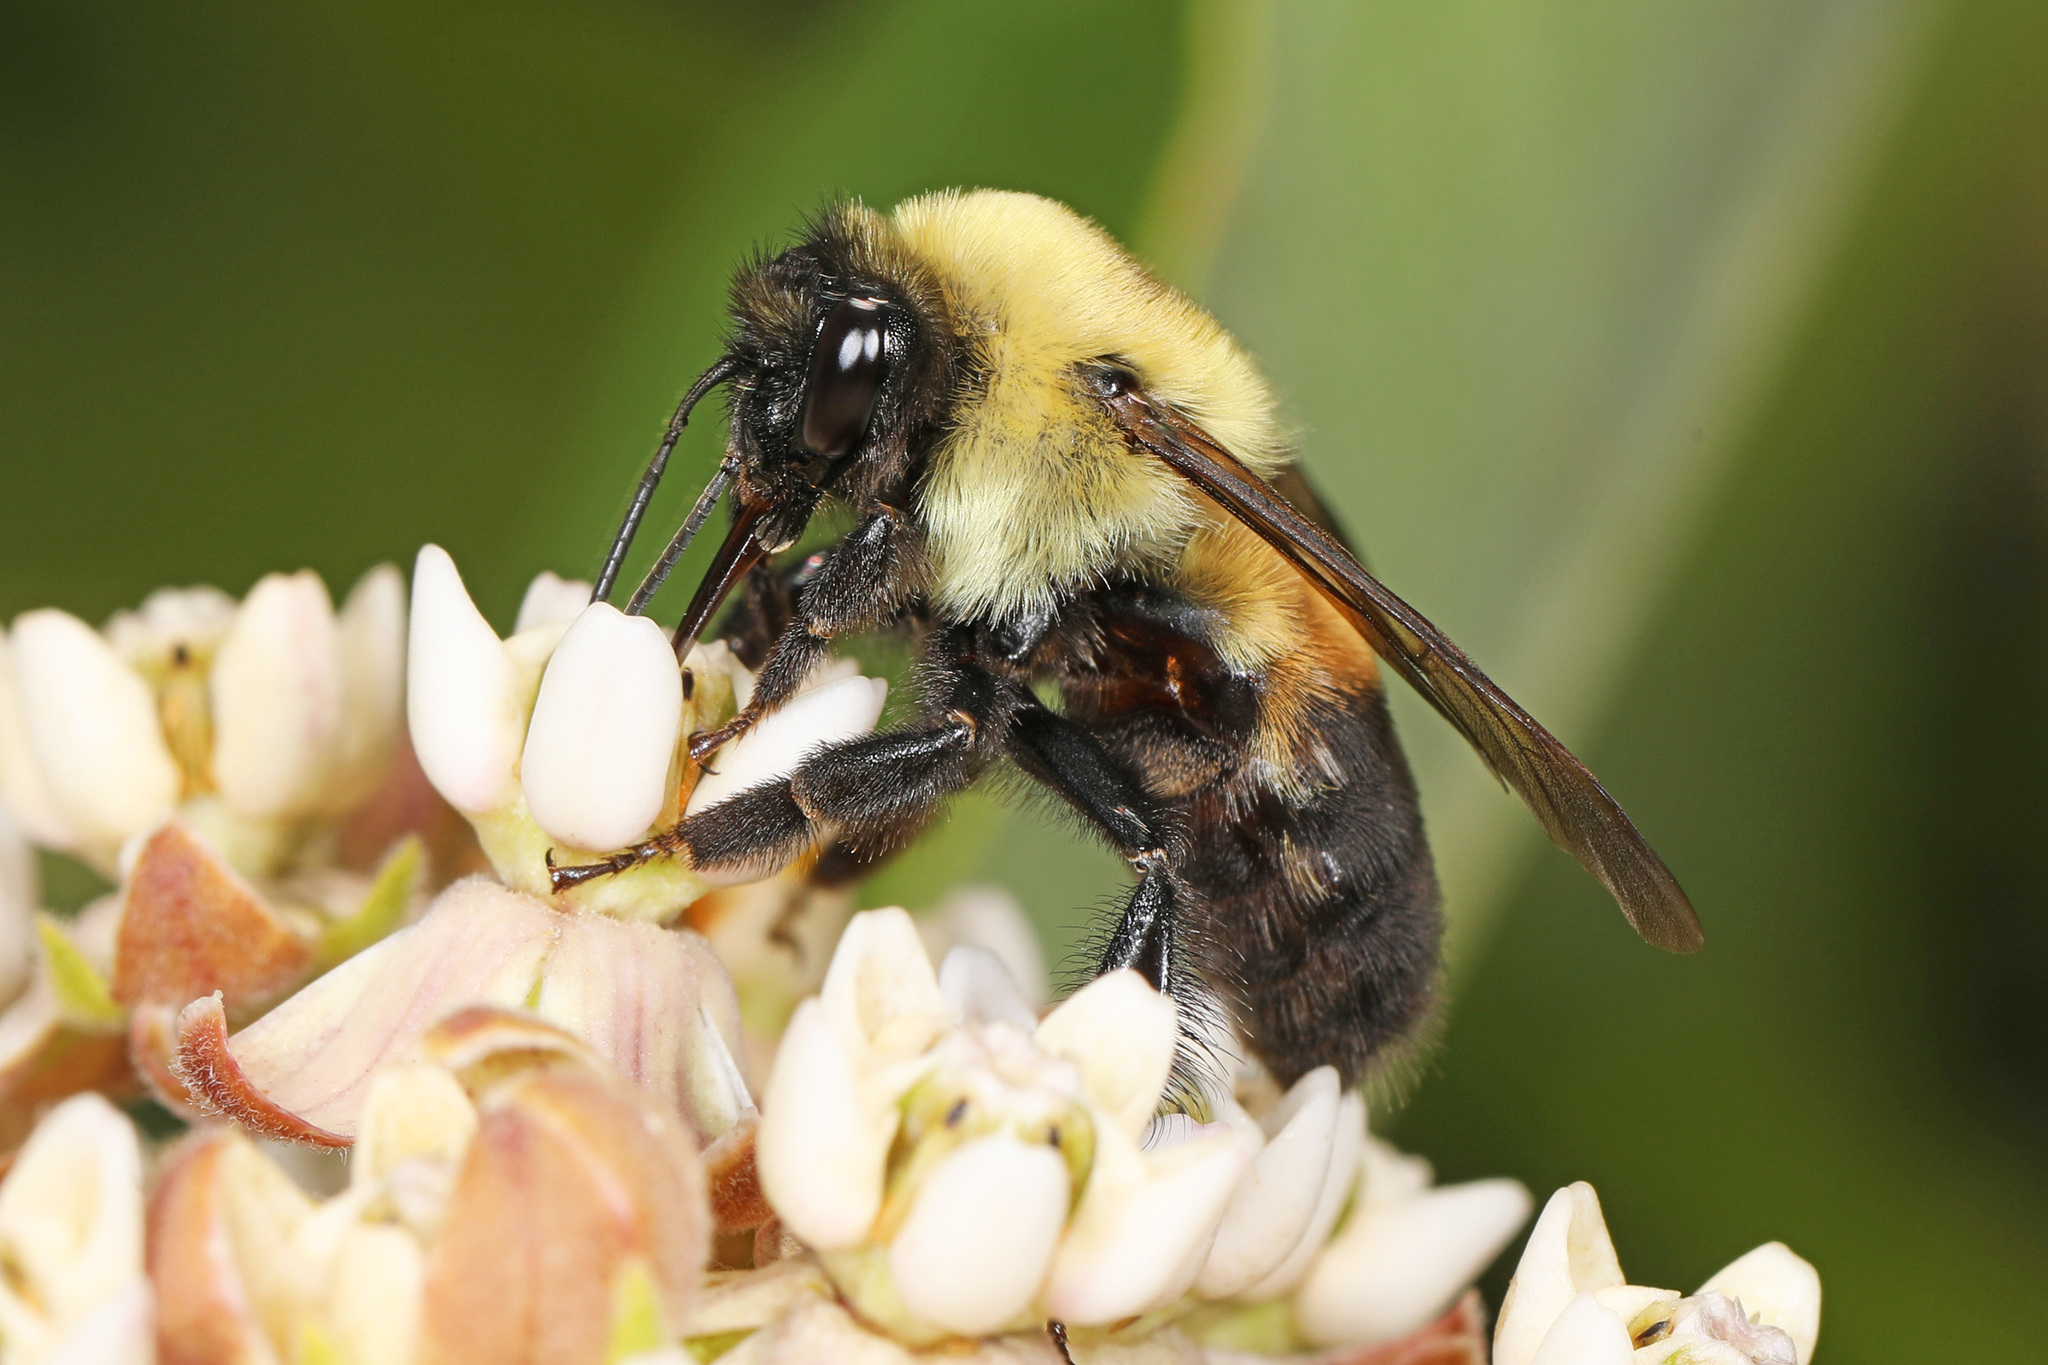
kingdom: Animalia
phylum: Arthropoda
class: Insecta
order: Hymenoptera
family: Apidae
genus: Bombus
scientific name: Bombus griseocollis
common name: Brown-belted bumble bee
